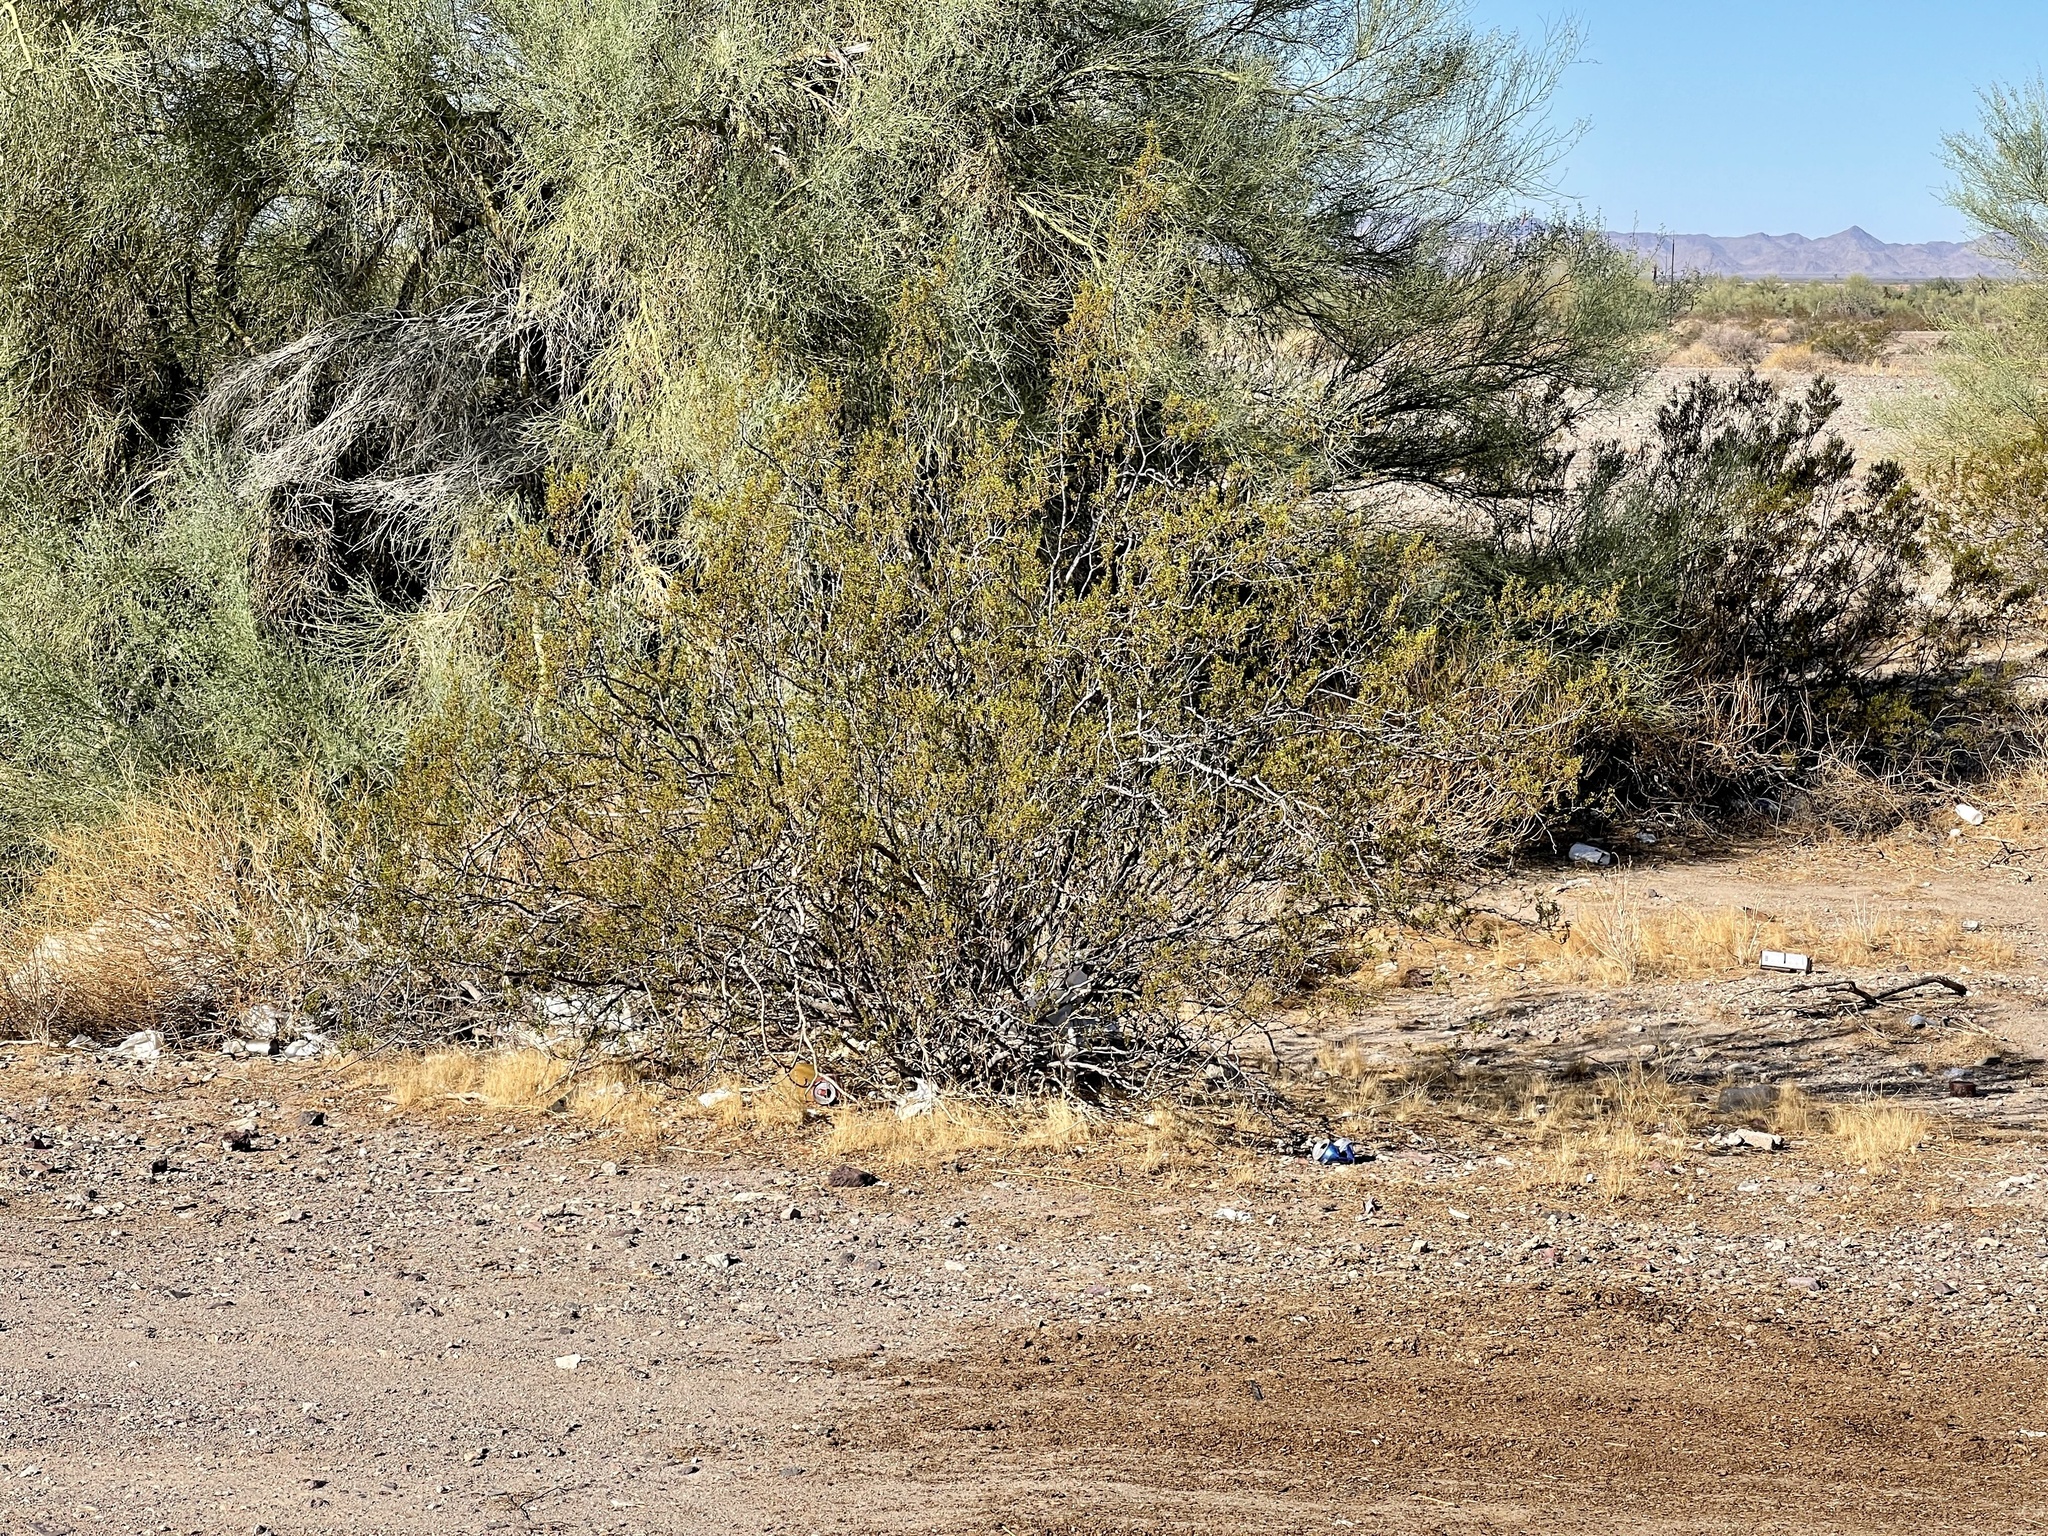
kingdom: Plantae
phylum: Tracheophyta
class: Magnoliopsida
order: Zygophyllales
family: Zygophyllaceae
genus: Larrea
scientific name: Larrea tridentata
